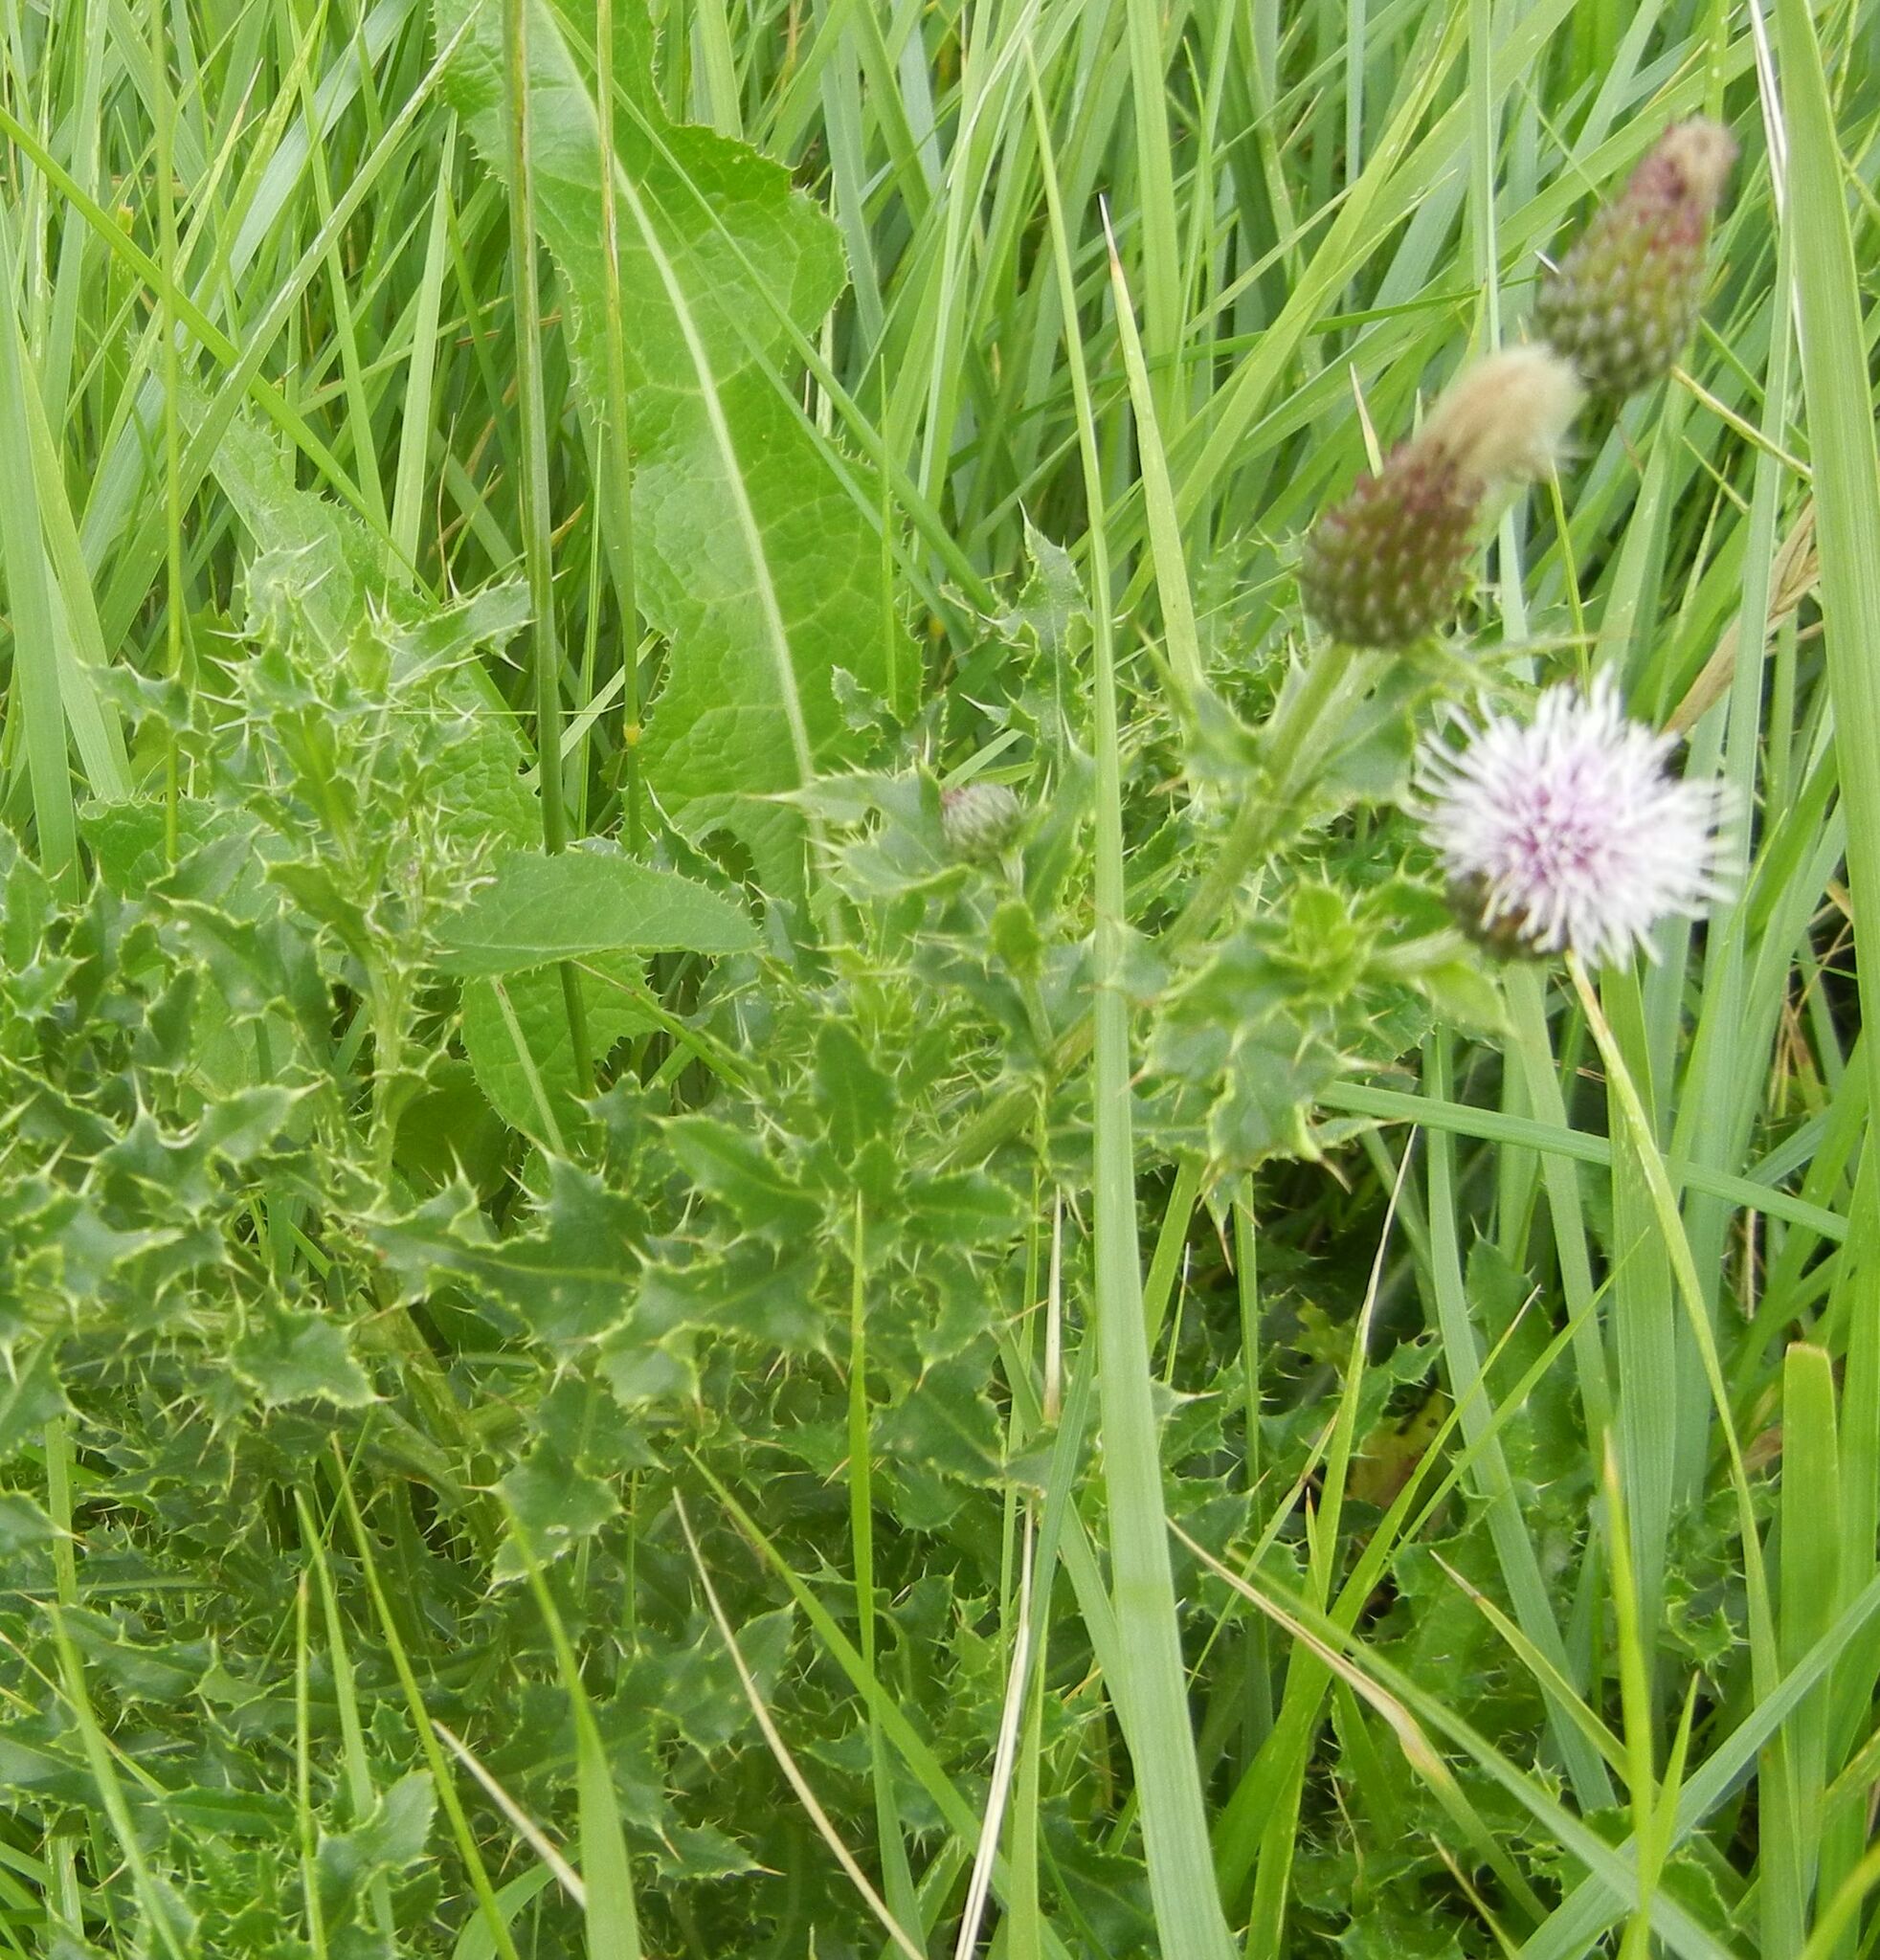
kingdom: Plantae
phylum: Tracheophyta
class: Magnoliopsida
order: Asterales
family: Asteraceae
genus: Cirsium
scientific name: Cirsium arvense
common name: Creeping thistle
